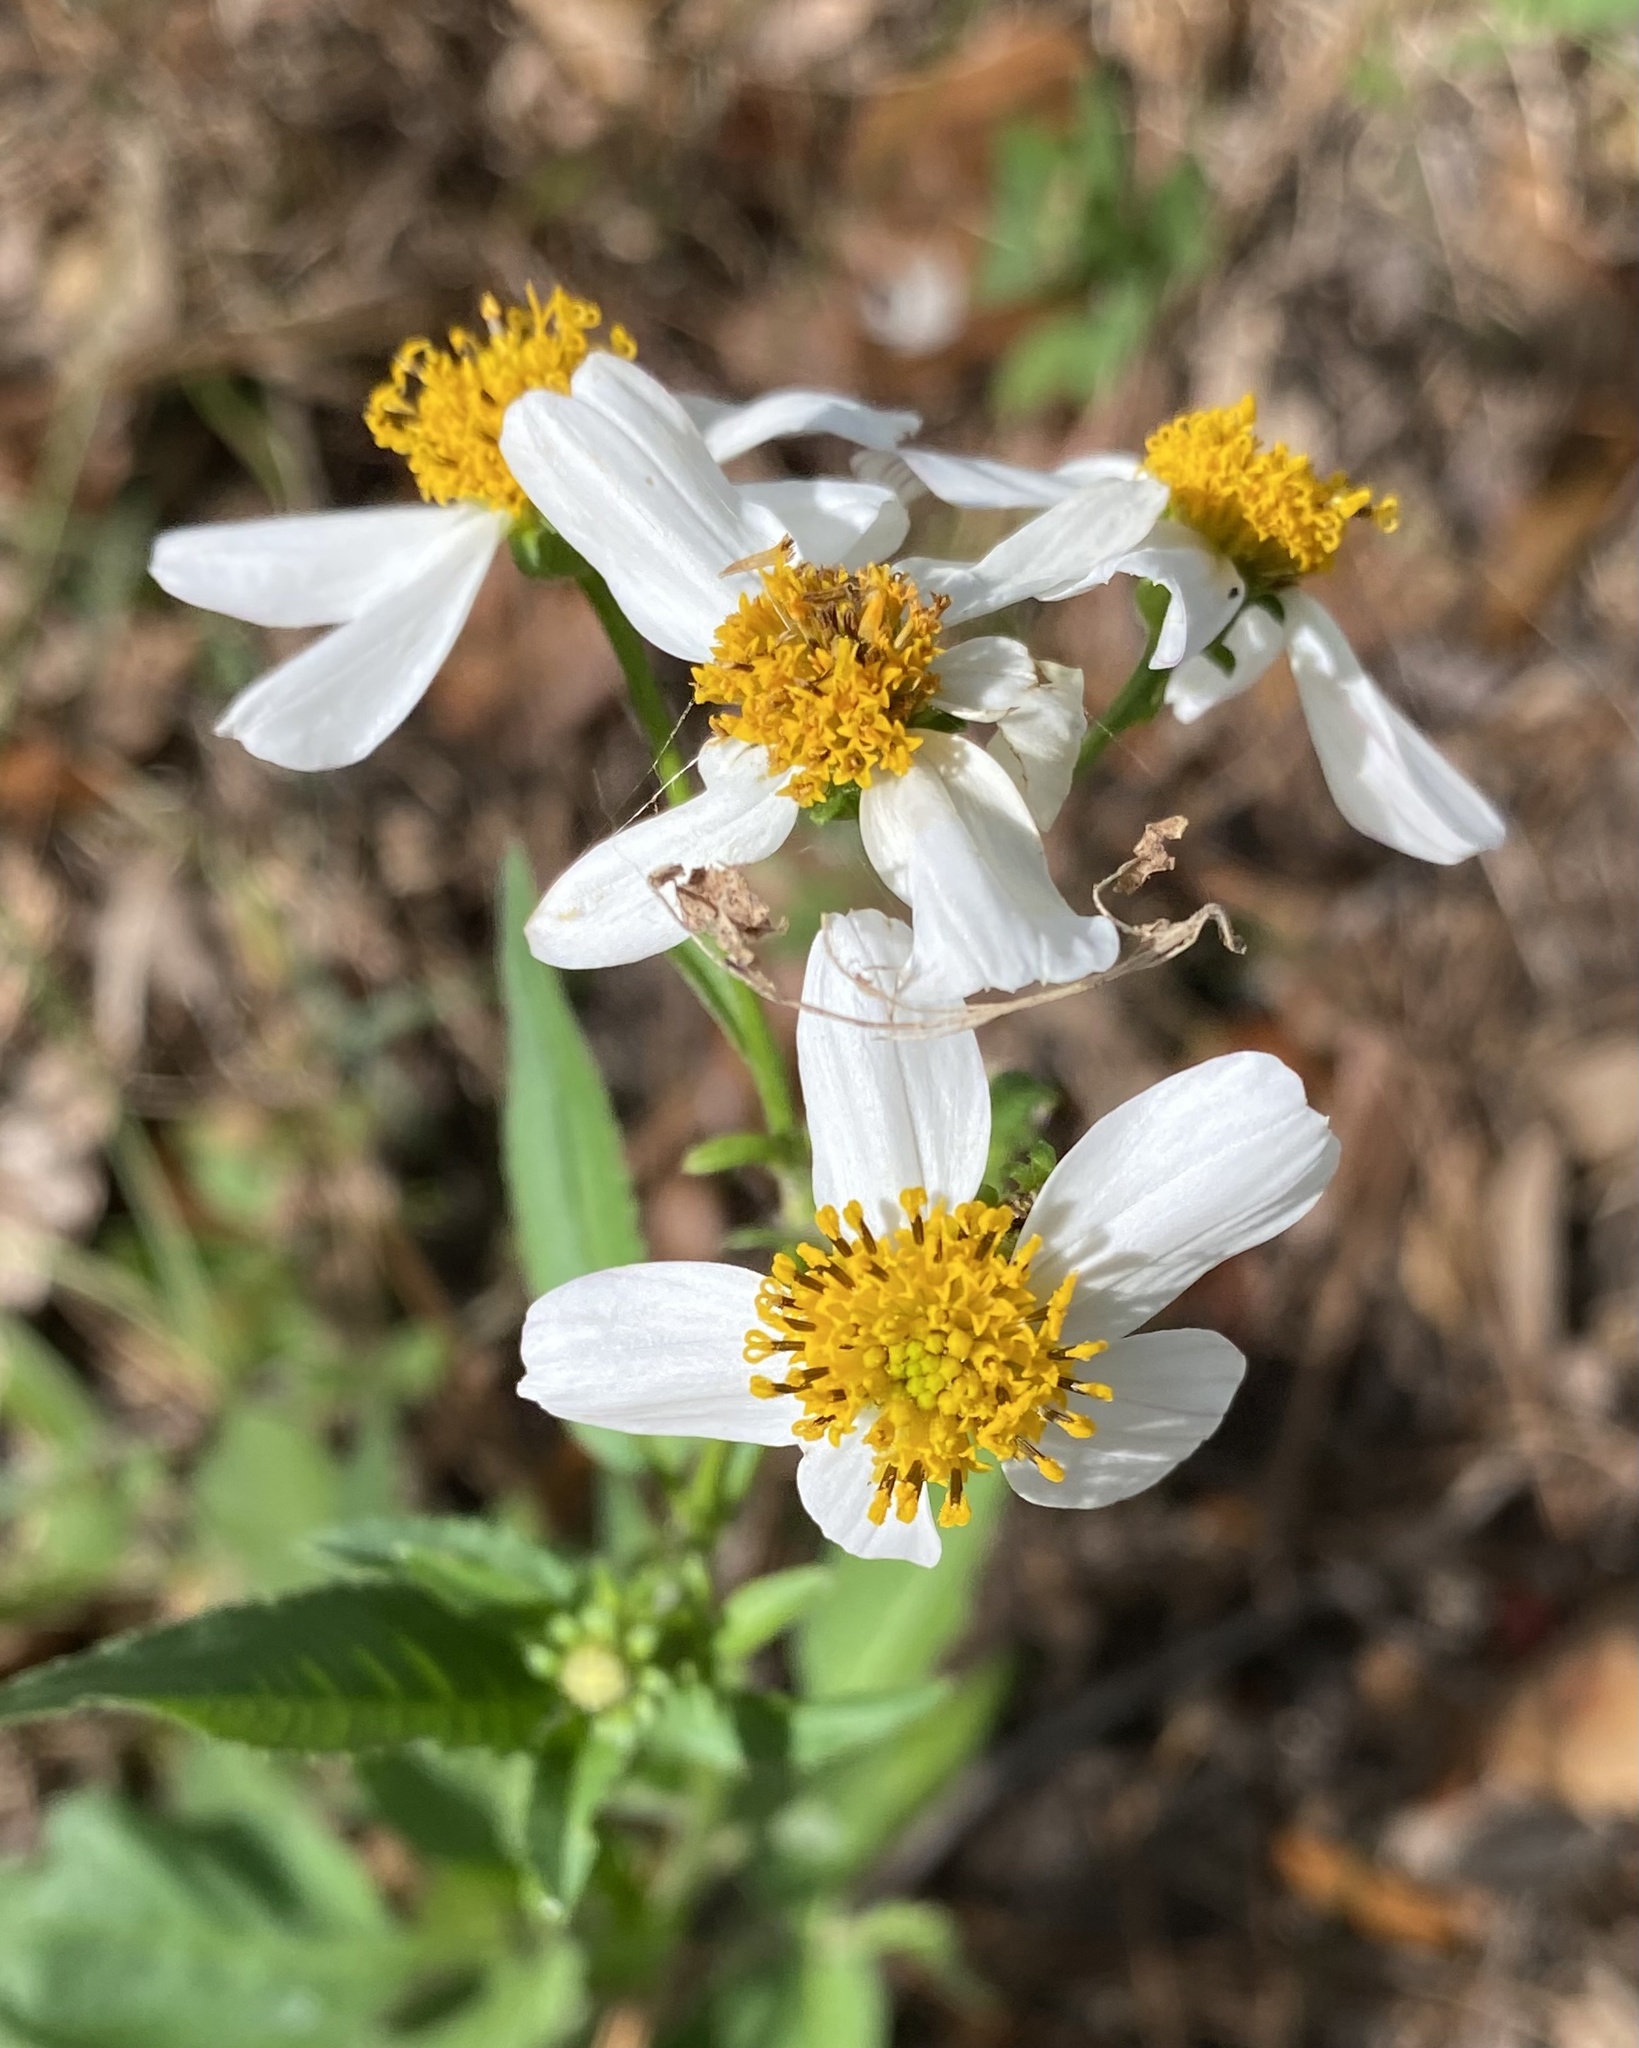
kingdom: Plantae
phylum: Tracheophyta
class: Magnoliopsida
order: Asterales
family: Asteraceae
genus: Bidens
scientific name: Bidens alba
